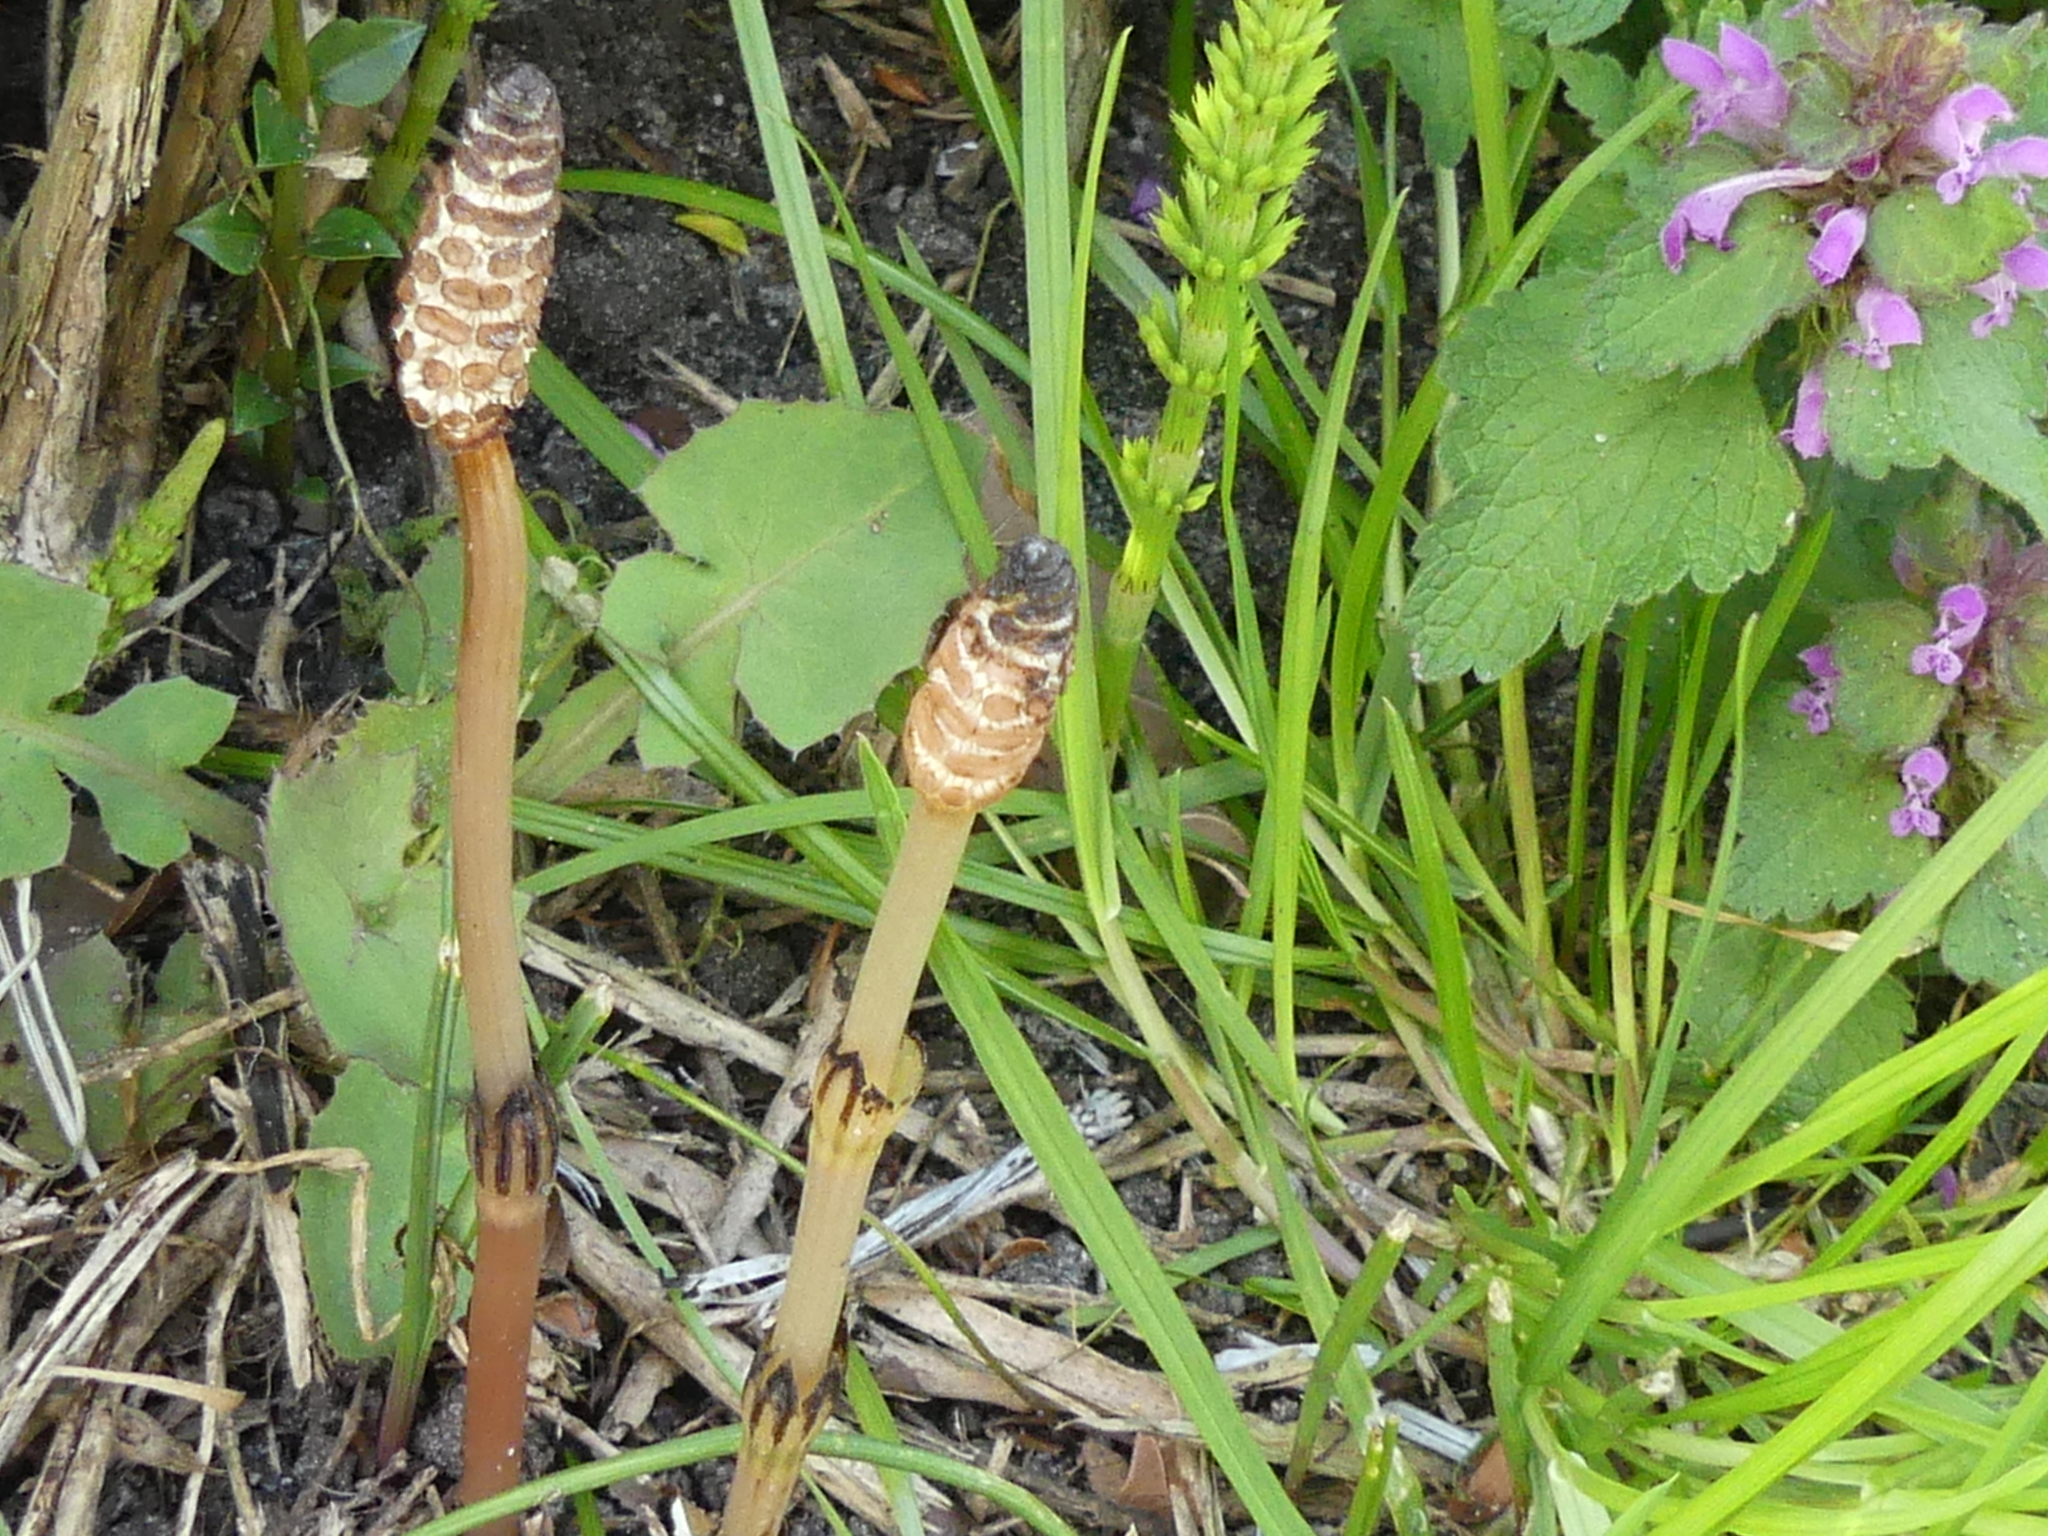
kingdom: Plantae
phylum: Tracheophyta
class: Polypodiopsida
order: Equisetales
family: Equisetaceae
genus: Equisetum
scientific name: Equisetum arvense
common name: Field horsetail
